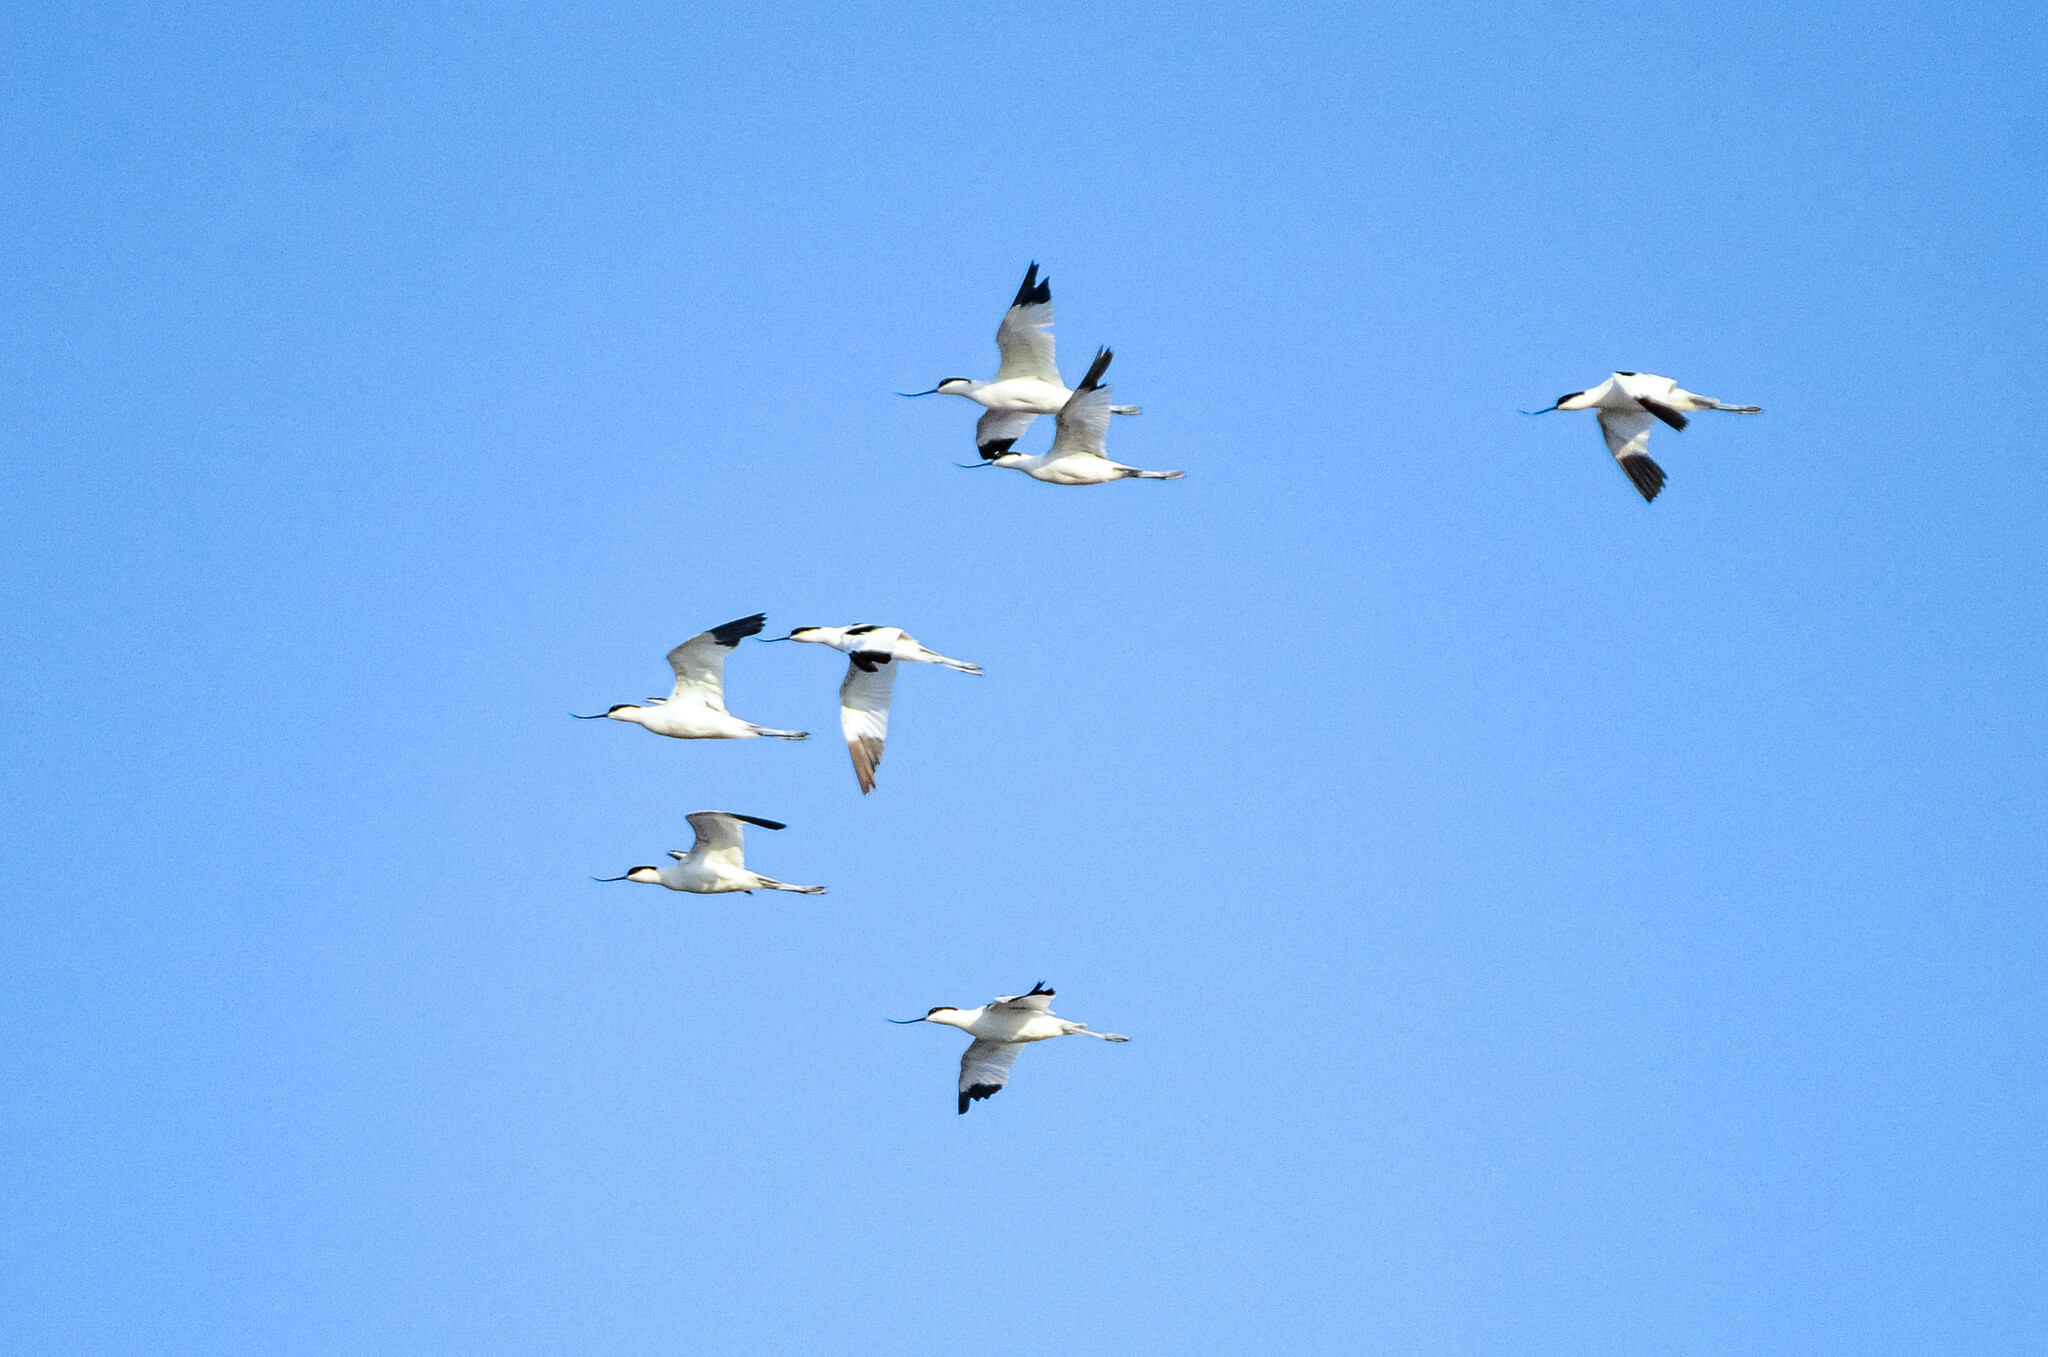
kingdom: Animalia
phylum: Chordata
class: Aves
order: Charadriiformes
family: Recurvirostridae
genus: Recurvirostra
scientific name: Recurvirostra avosetta
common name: Pied avocet
